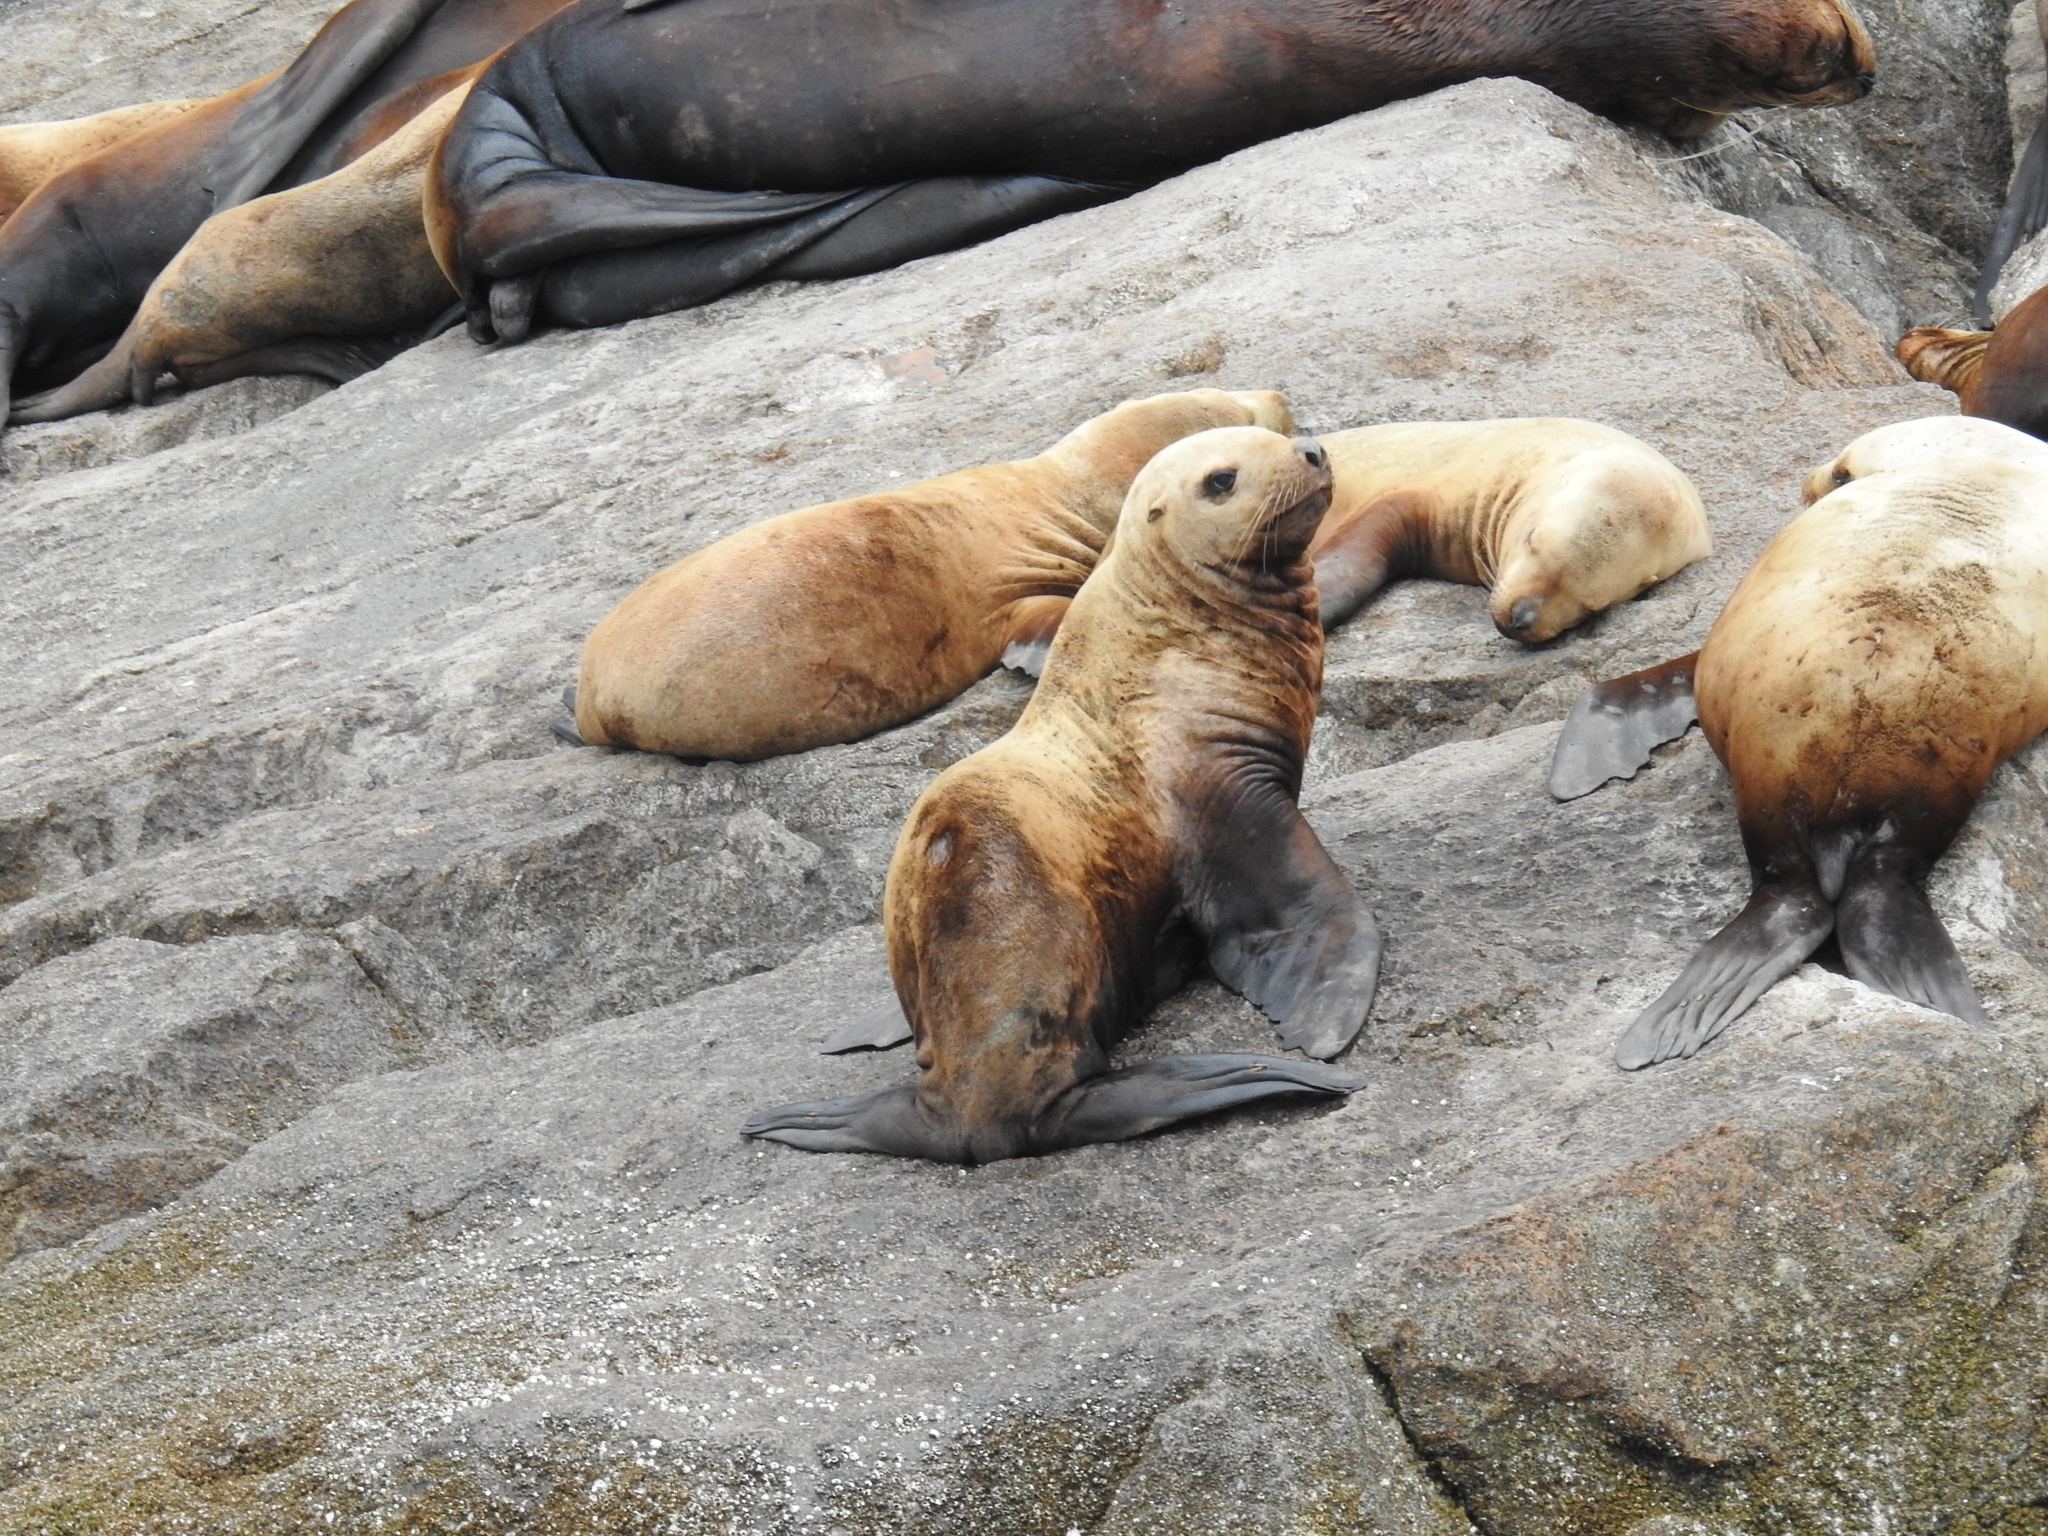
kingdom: Animalia
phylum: Chordata
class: Mammalia
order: Carnivora
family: Otariidae
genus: Eumetopias
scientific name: Eumetopias jubatus
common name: Steller sea lion
